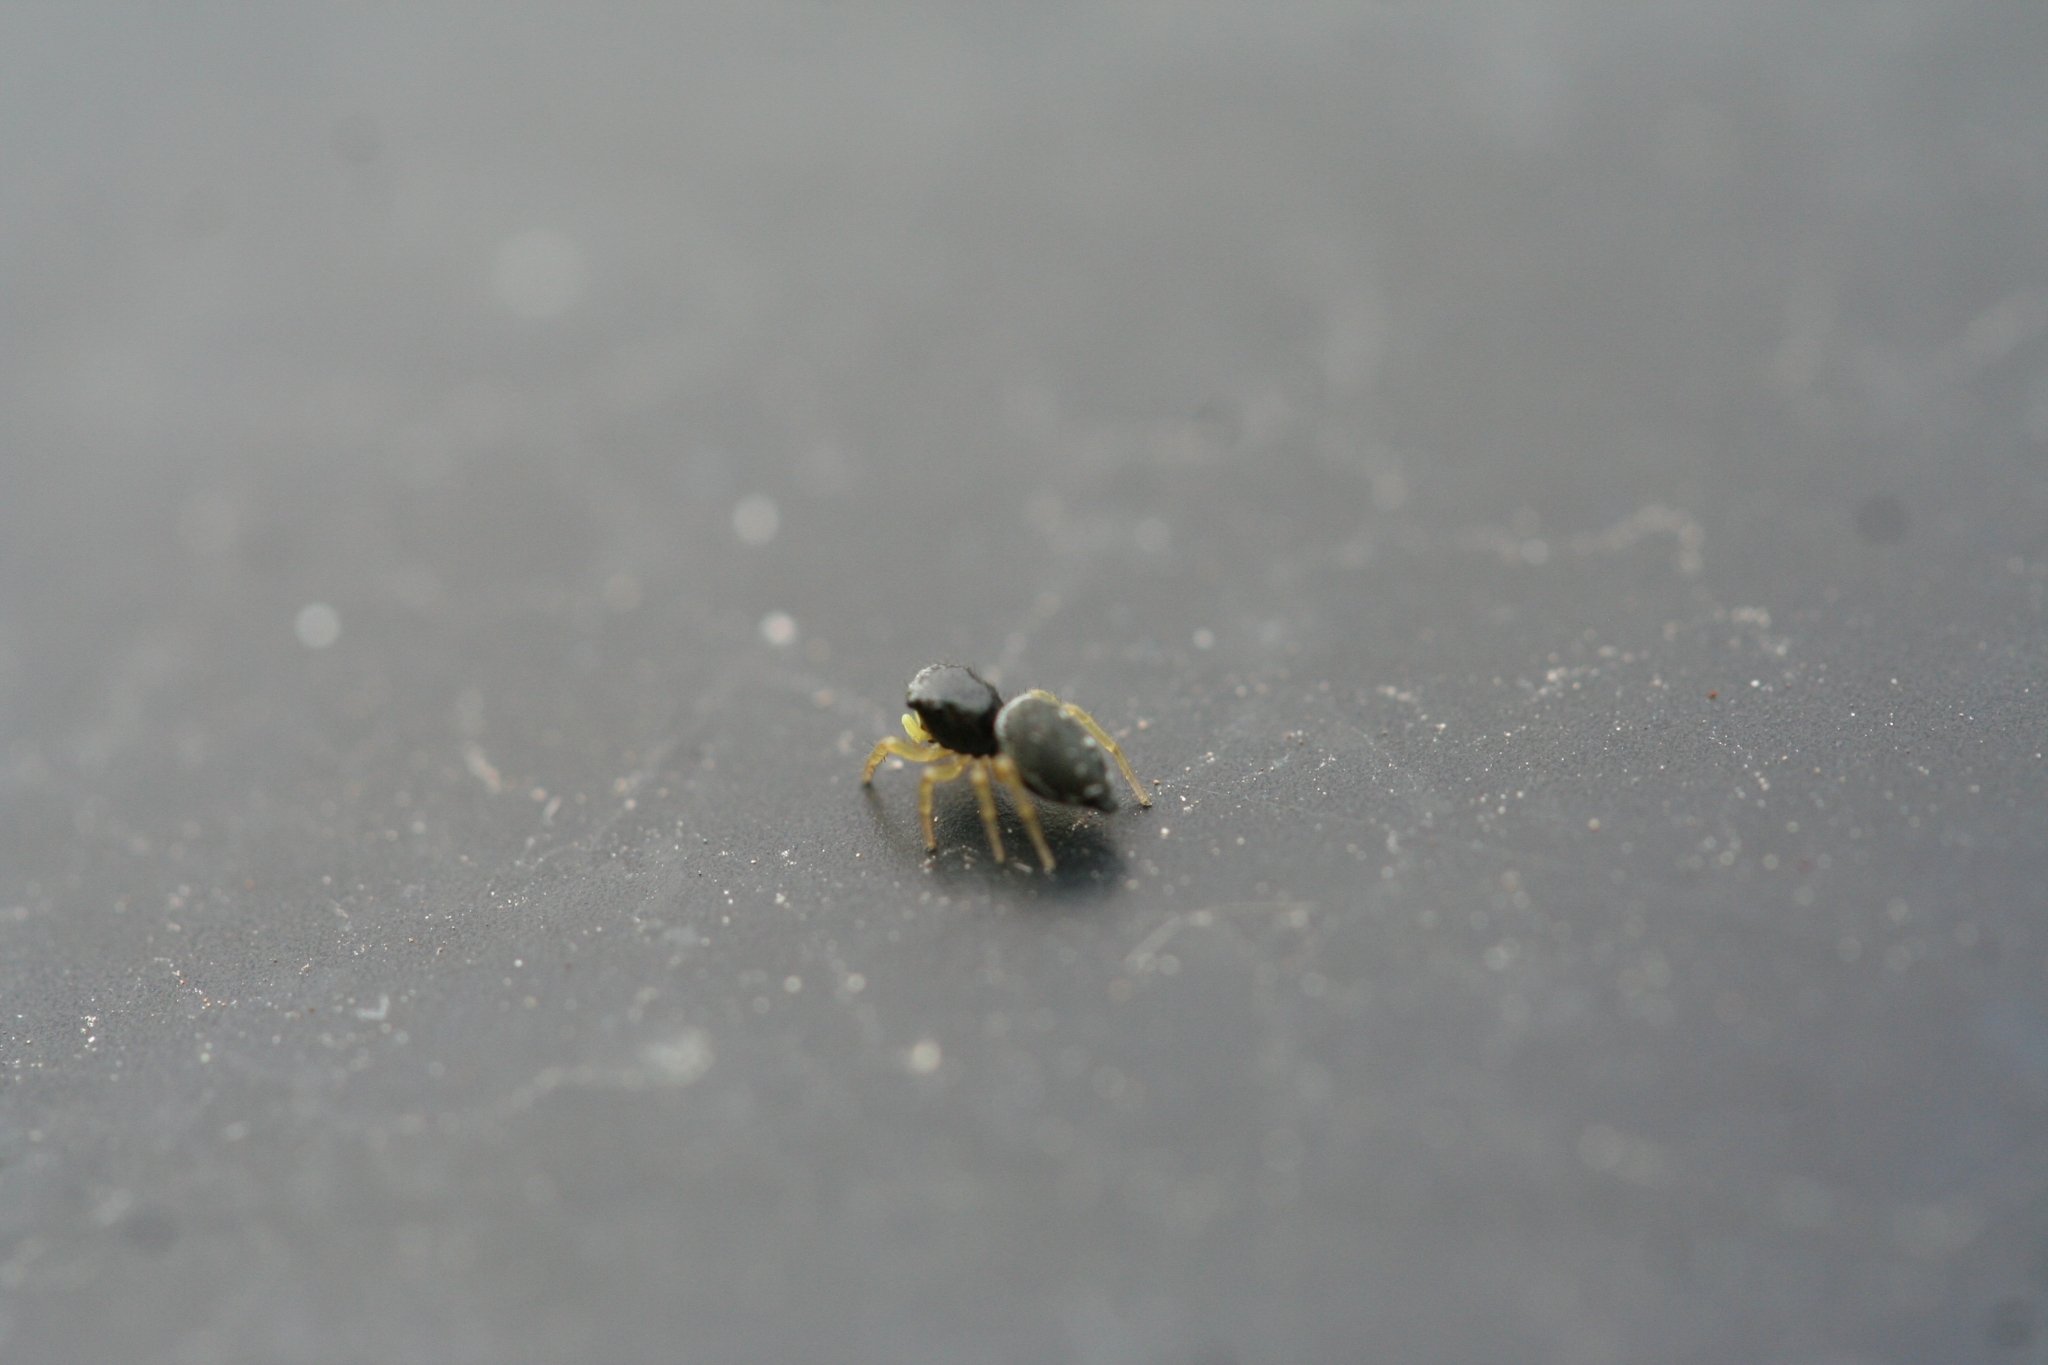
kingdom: Animalia
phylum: Arthropoda
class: Arachnida
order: Araneae
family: Salticidae
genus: Heliophanus
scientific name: Heliophanus flavipes
